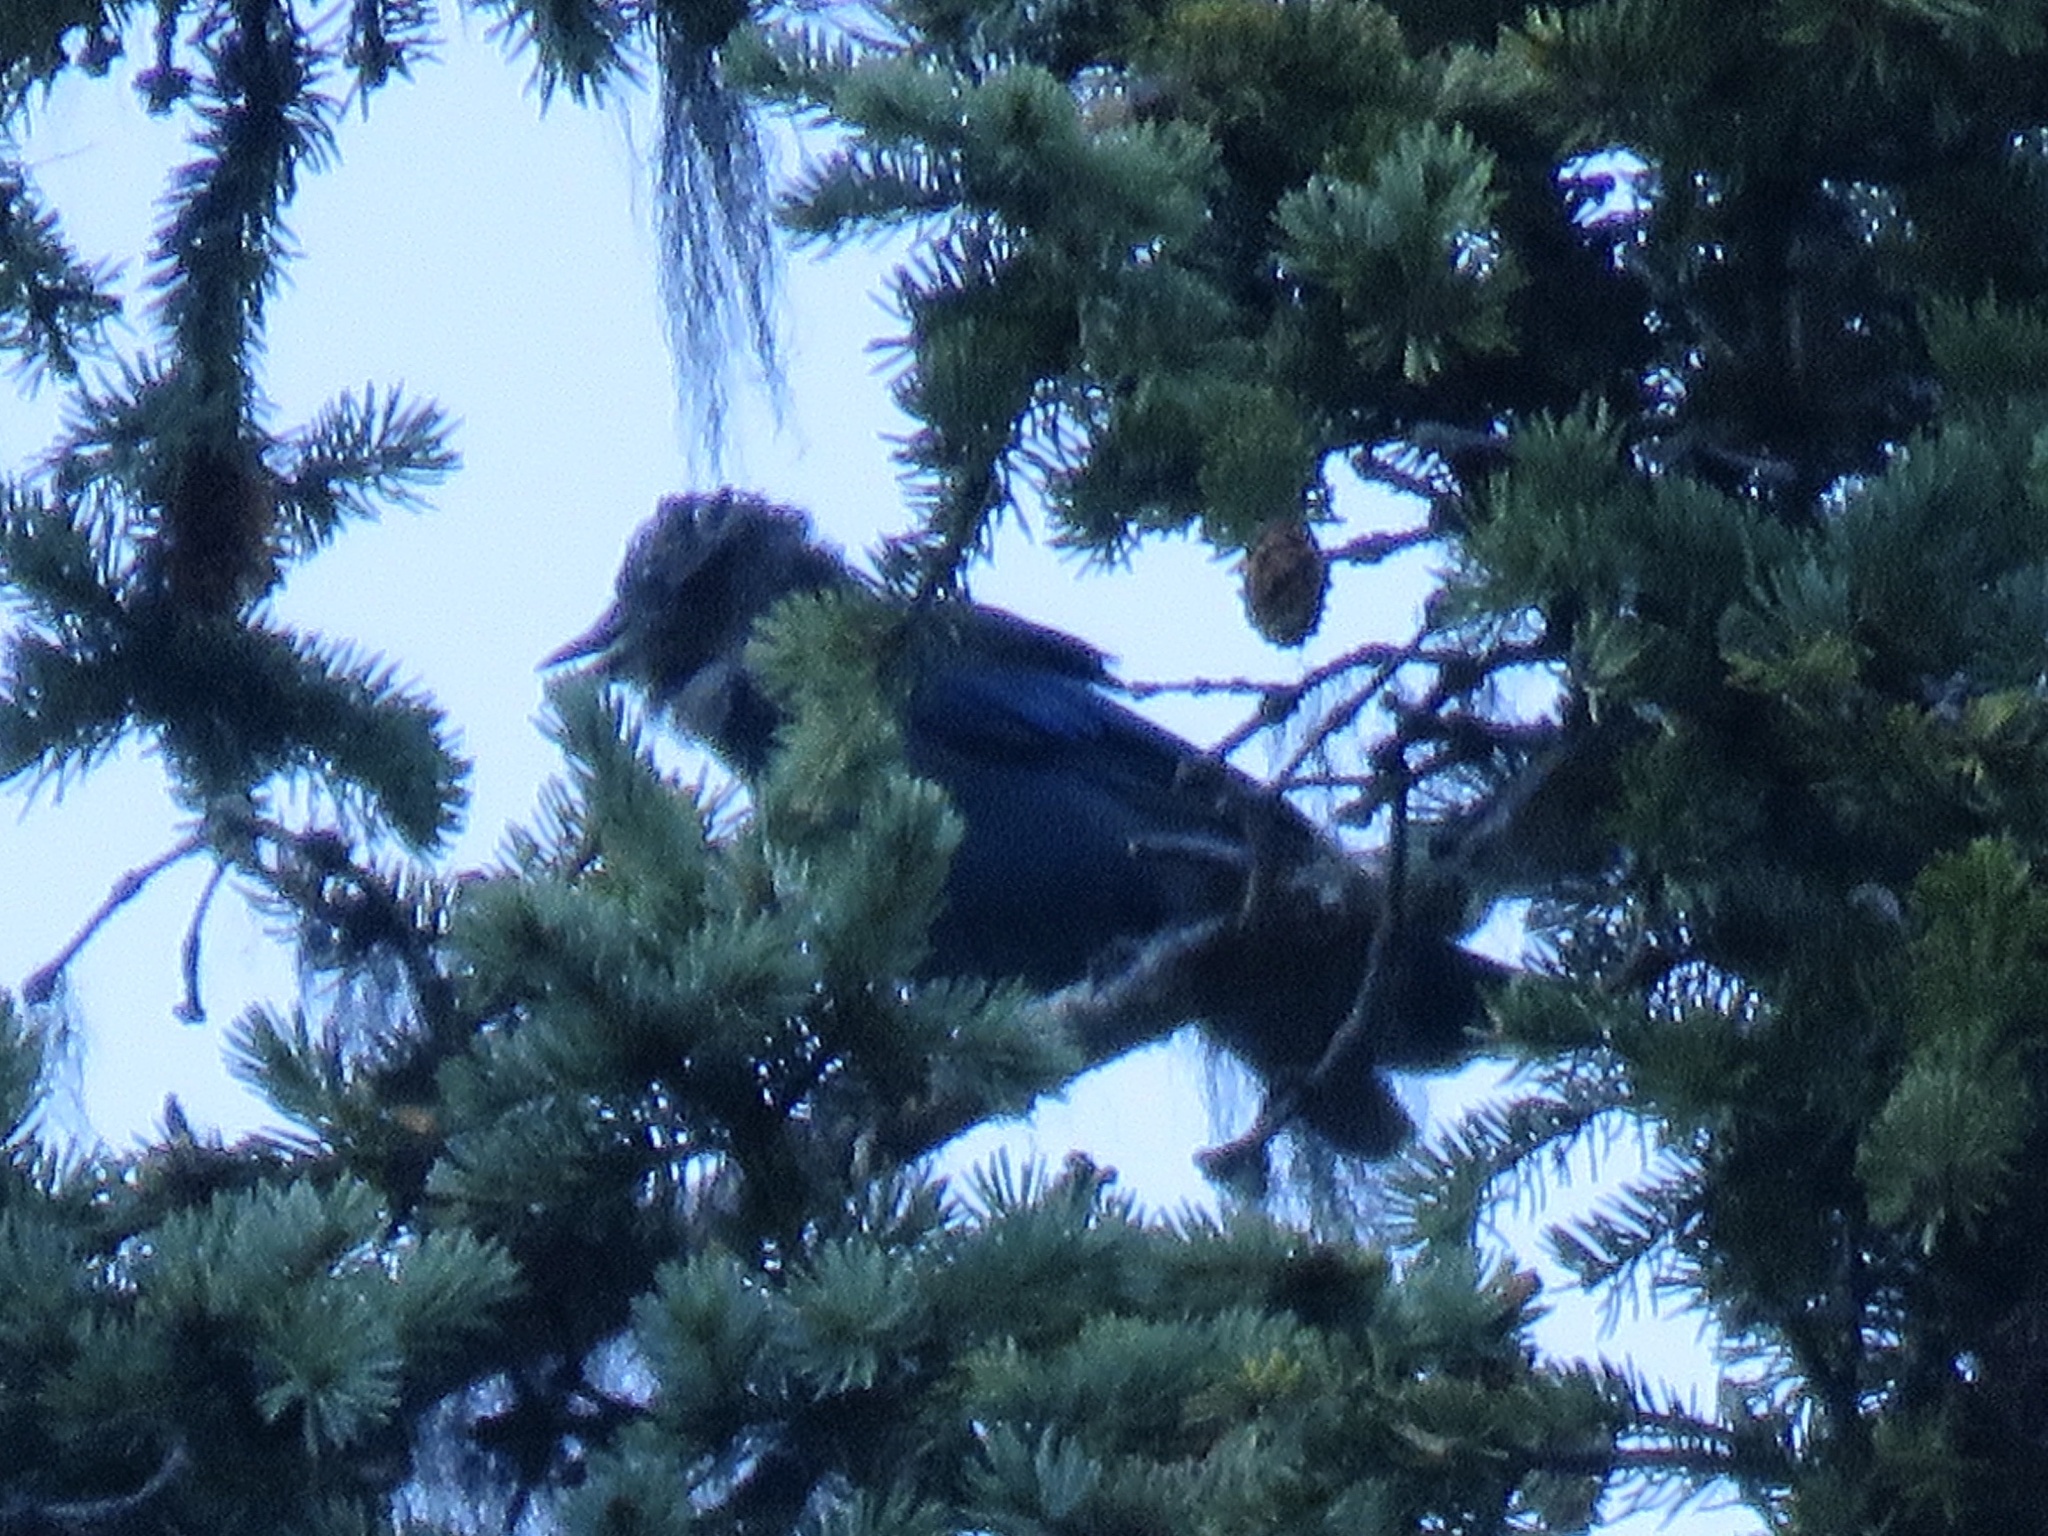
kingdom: Animalia
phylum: Chordata
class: Aves
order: Passeriformes
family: Corvidae
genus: Cyanocitta
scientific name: Cyanocitta stelleri
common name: Steller's jay
